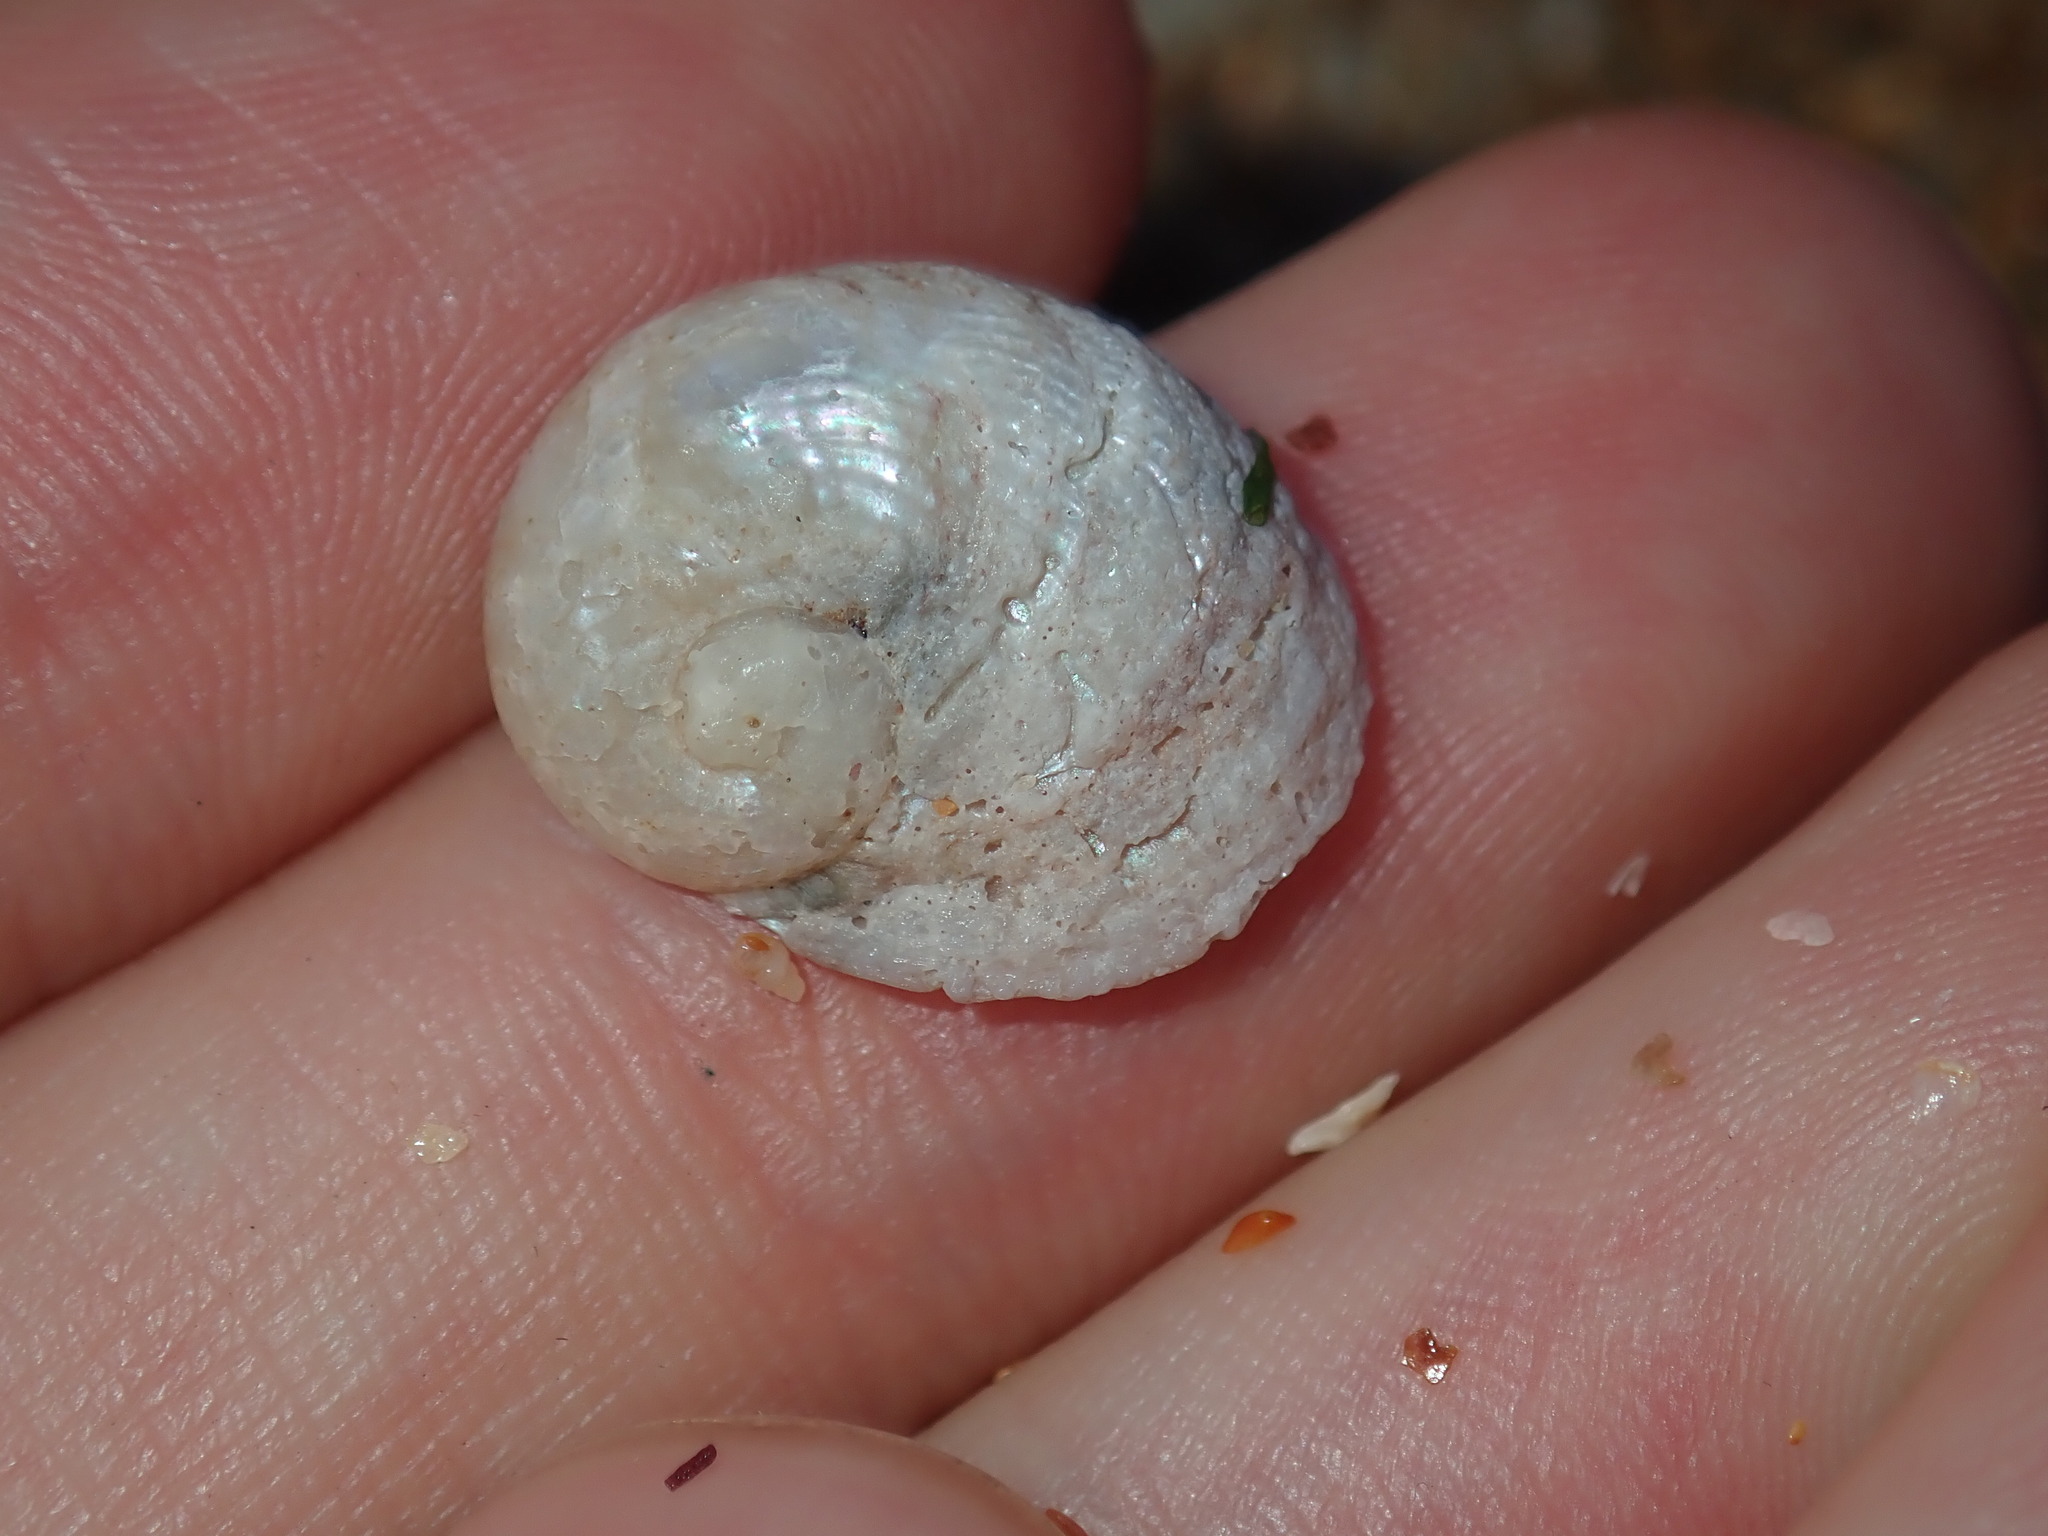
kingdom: Animalia
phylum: Mollusca
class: Gastropoda
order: Seguenziida
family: Chilodontaidae
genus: Granata
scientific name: Granata imbricata
